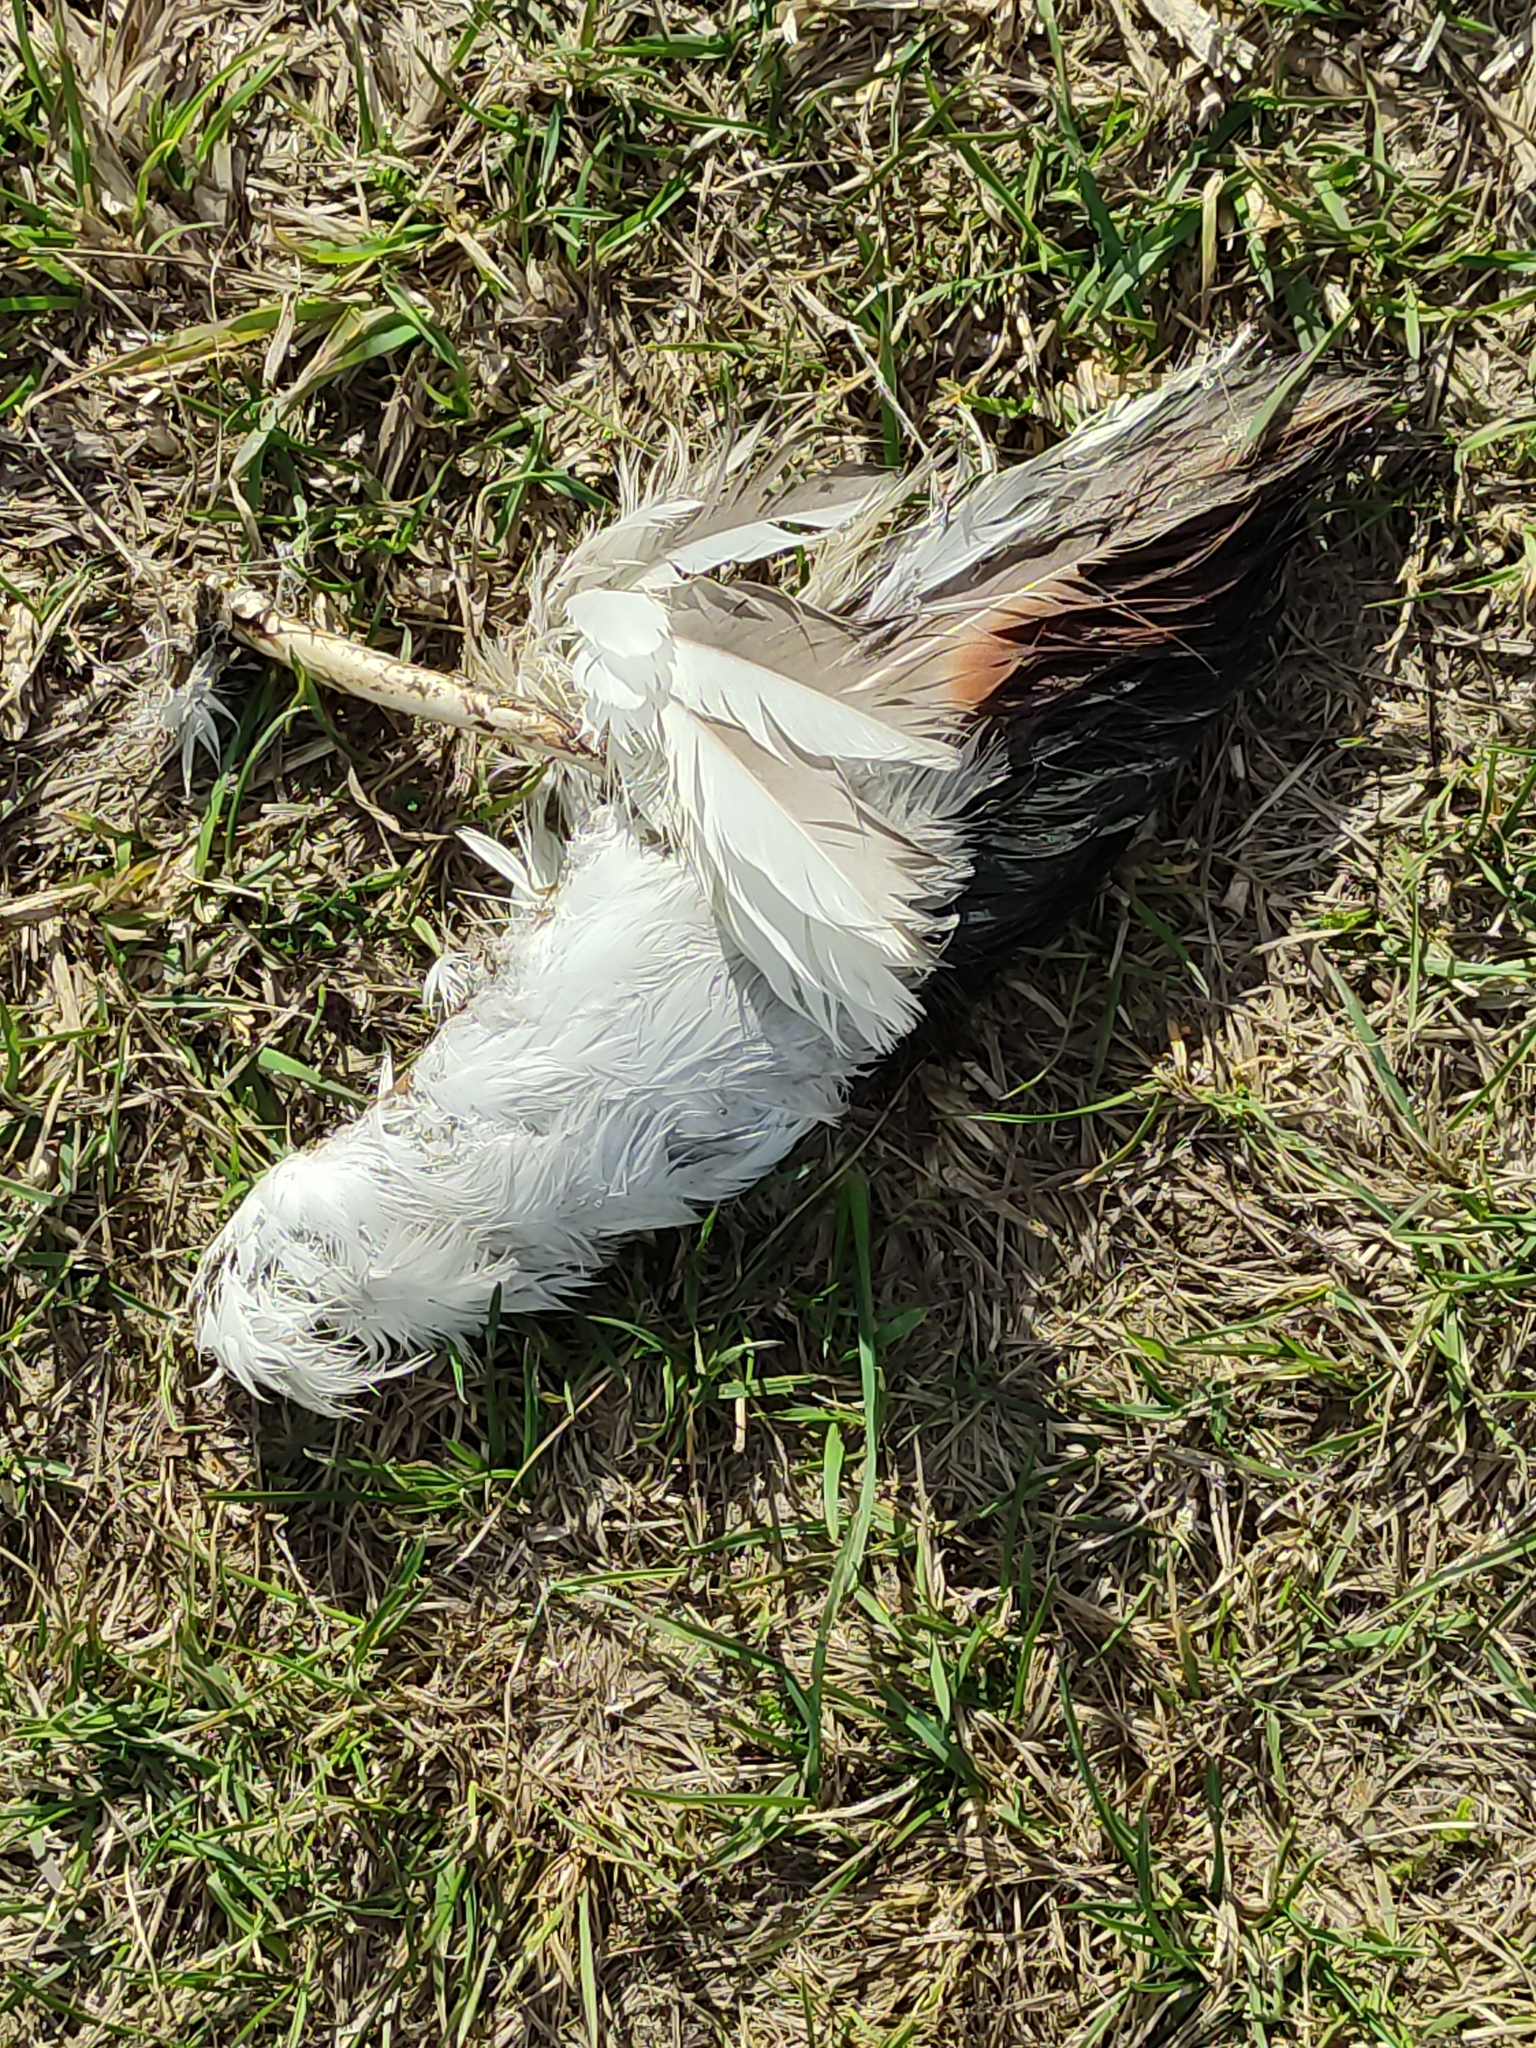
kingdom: Animalia
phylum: Chordata
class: Aves
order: Anseriformes
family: Anatidae
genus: Tadorna
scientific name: Tadorna variegata
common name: Paradise shelduck
